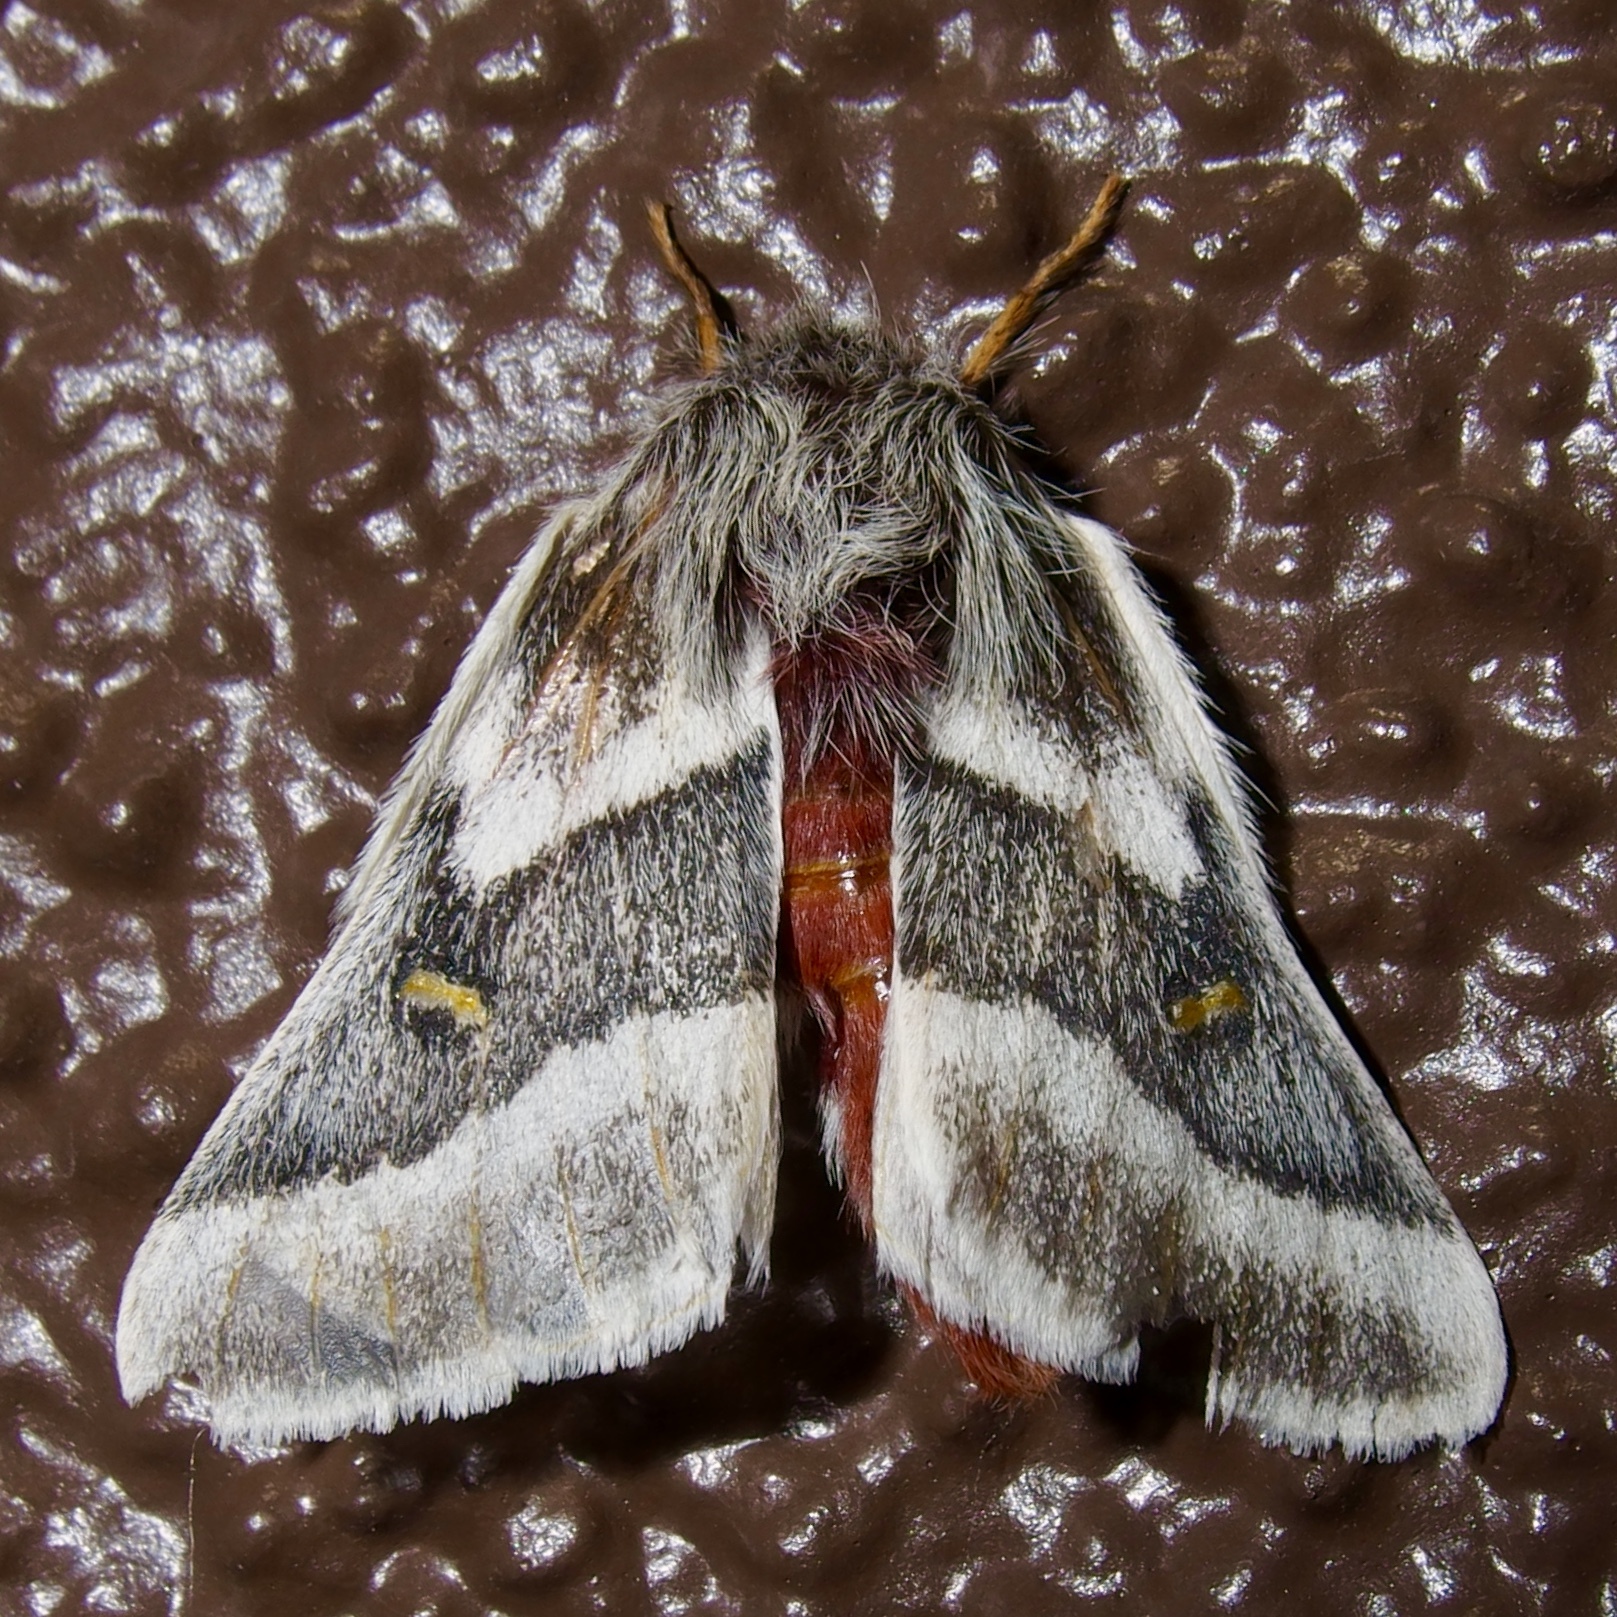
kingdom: Animalia
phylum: Arthropoda
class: Insecta
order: Lepidoptera
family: Saturniidae
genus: Hemileuca
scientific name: Hemileuca tricolor
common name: Tricolor buckmoth
